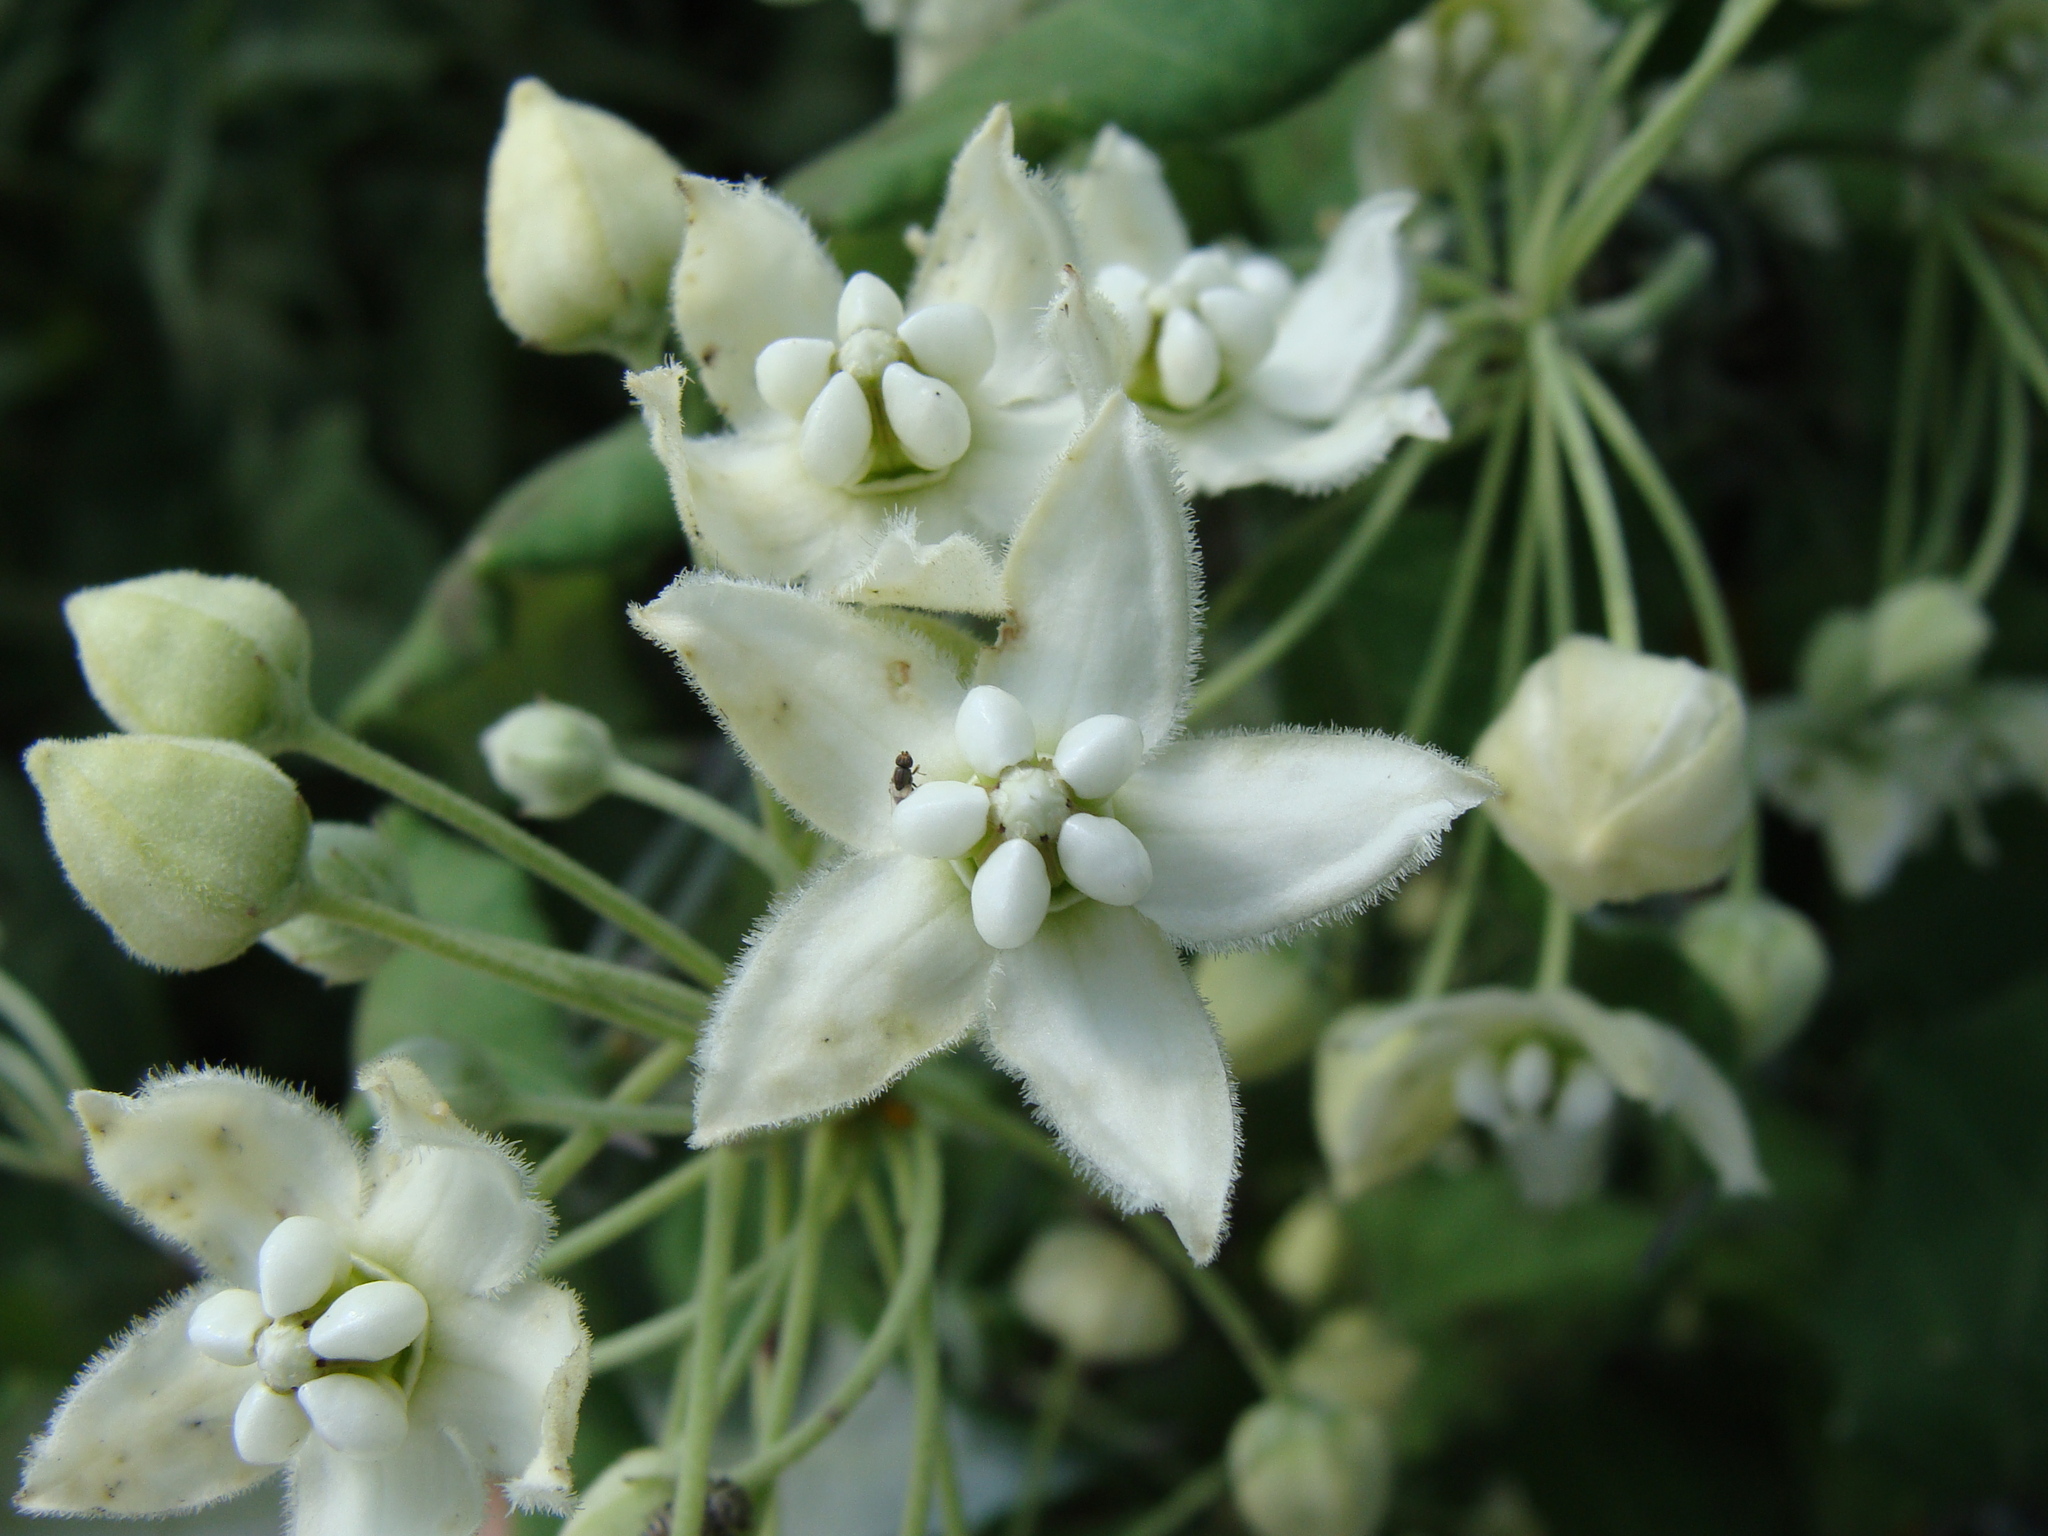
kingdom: Plantae
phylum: Tracheophyta
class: Magnoliopsida
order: Gentianales
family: Apocynaceae
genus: Funastrum
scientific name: Funastrum pannosum
